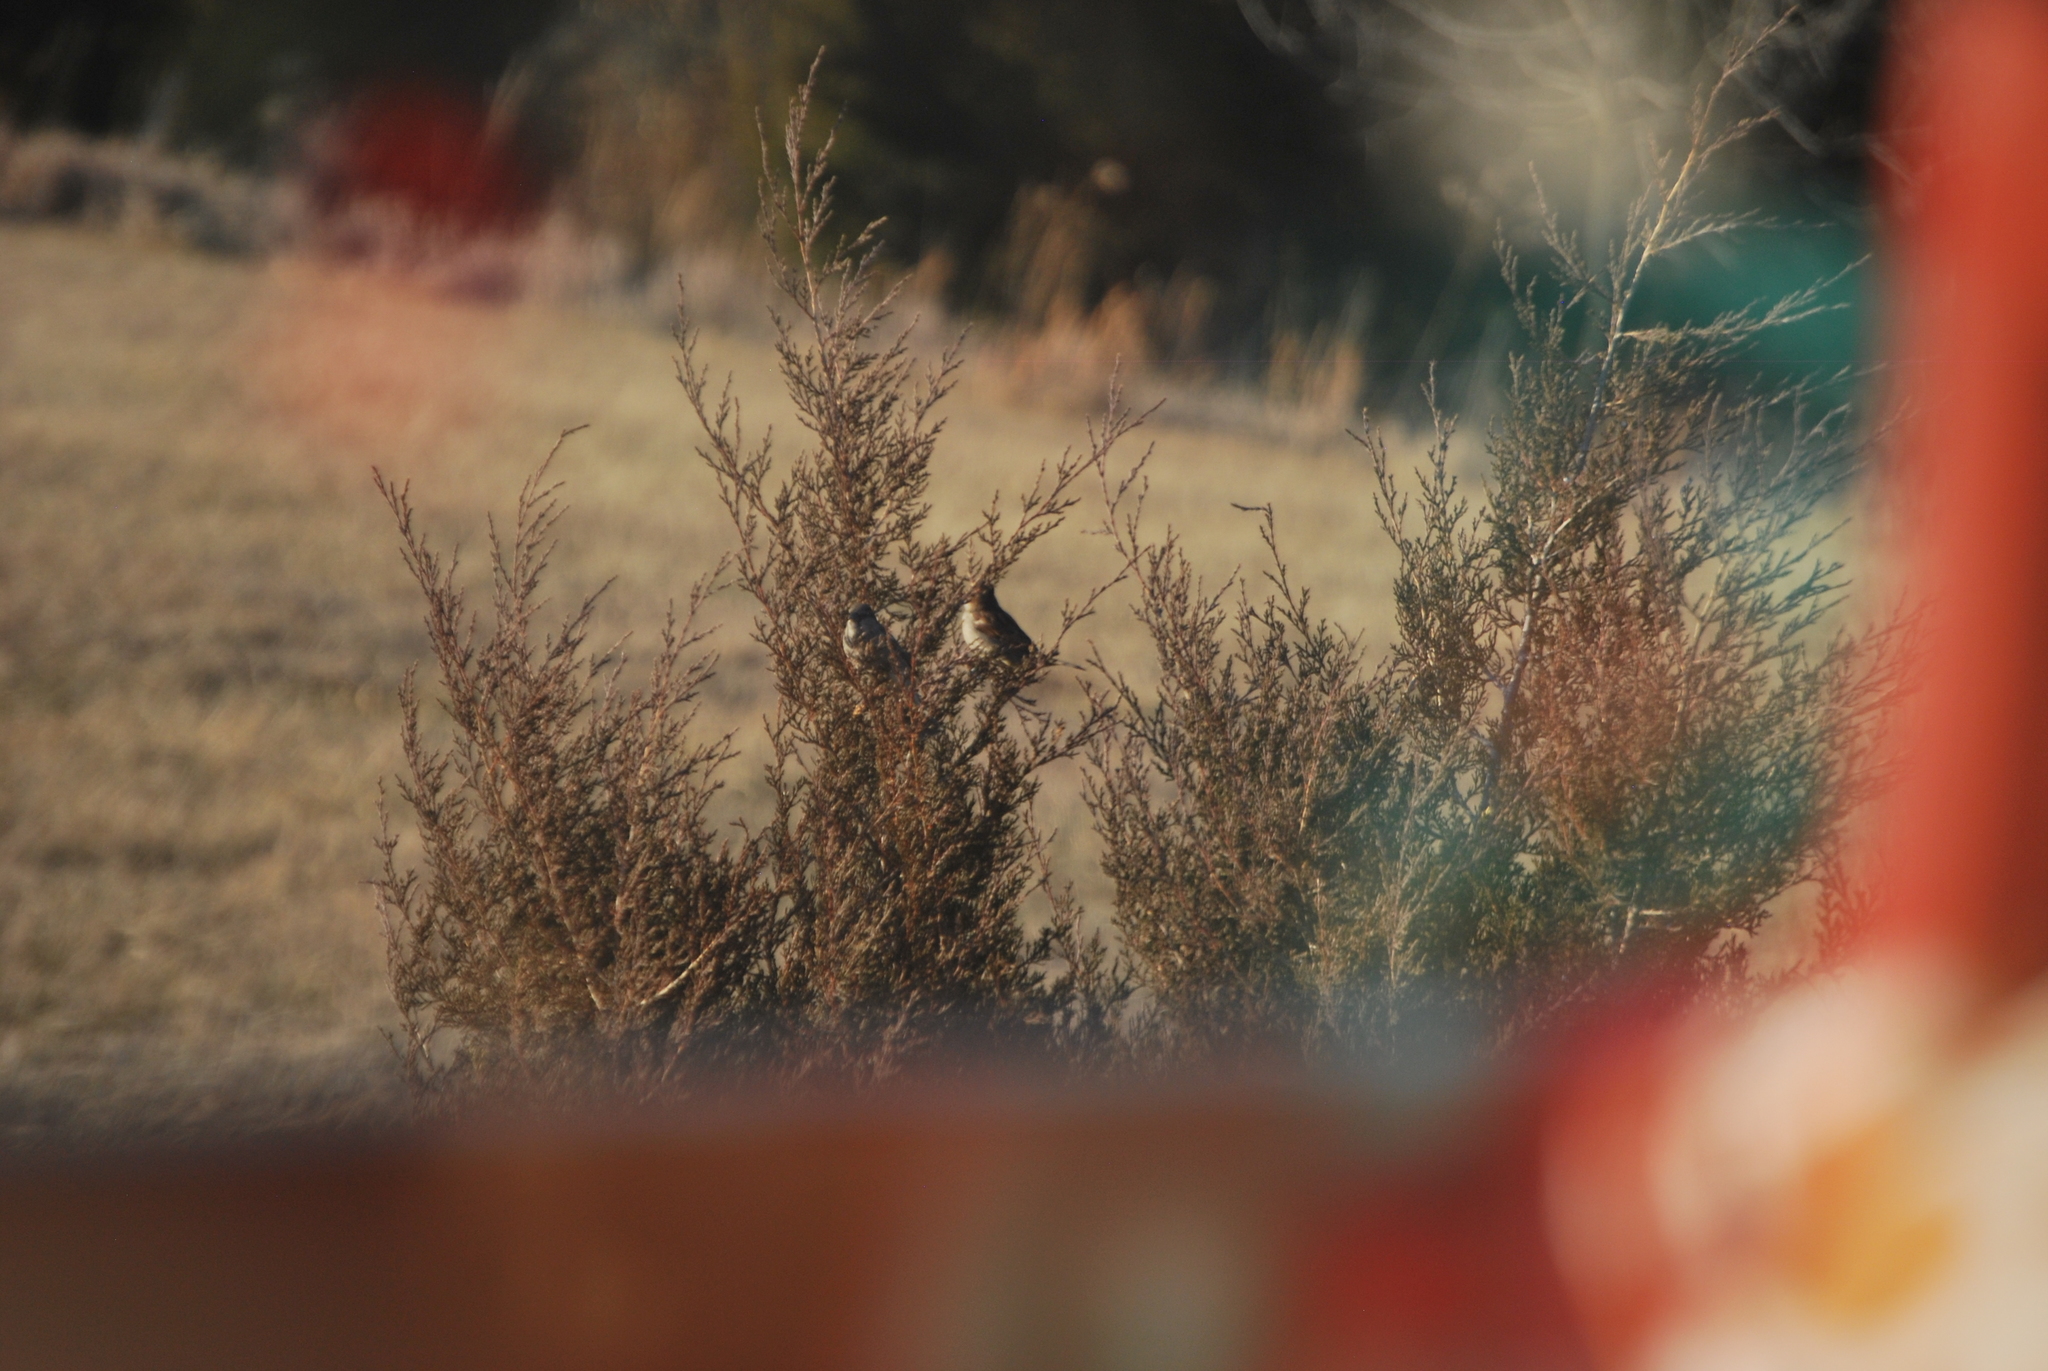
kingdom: Animalia
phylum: Chordata
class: Aves
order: Passeriformes
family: Passeridae
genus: Passer
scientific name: Passer domesticus
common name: House sparrow
